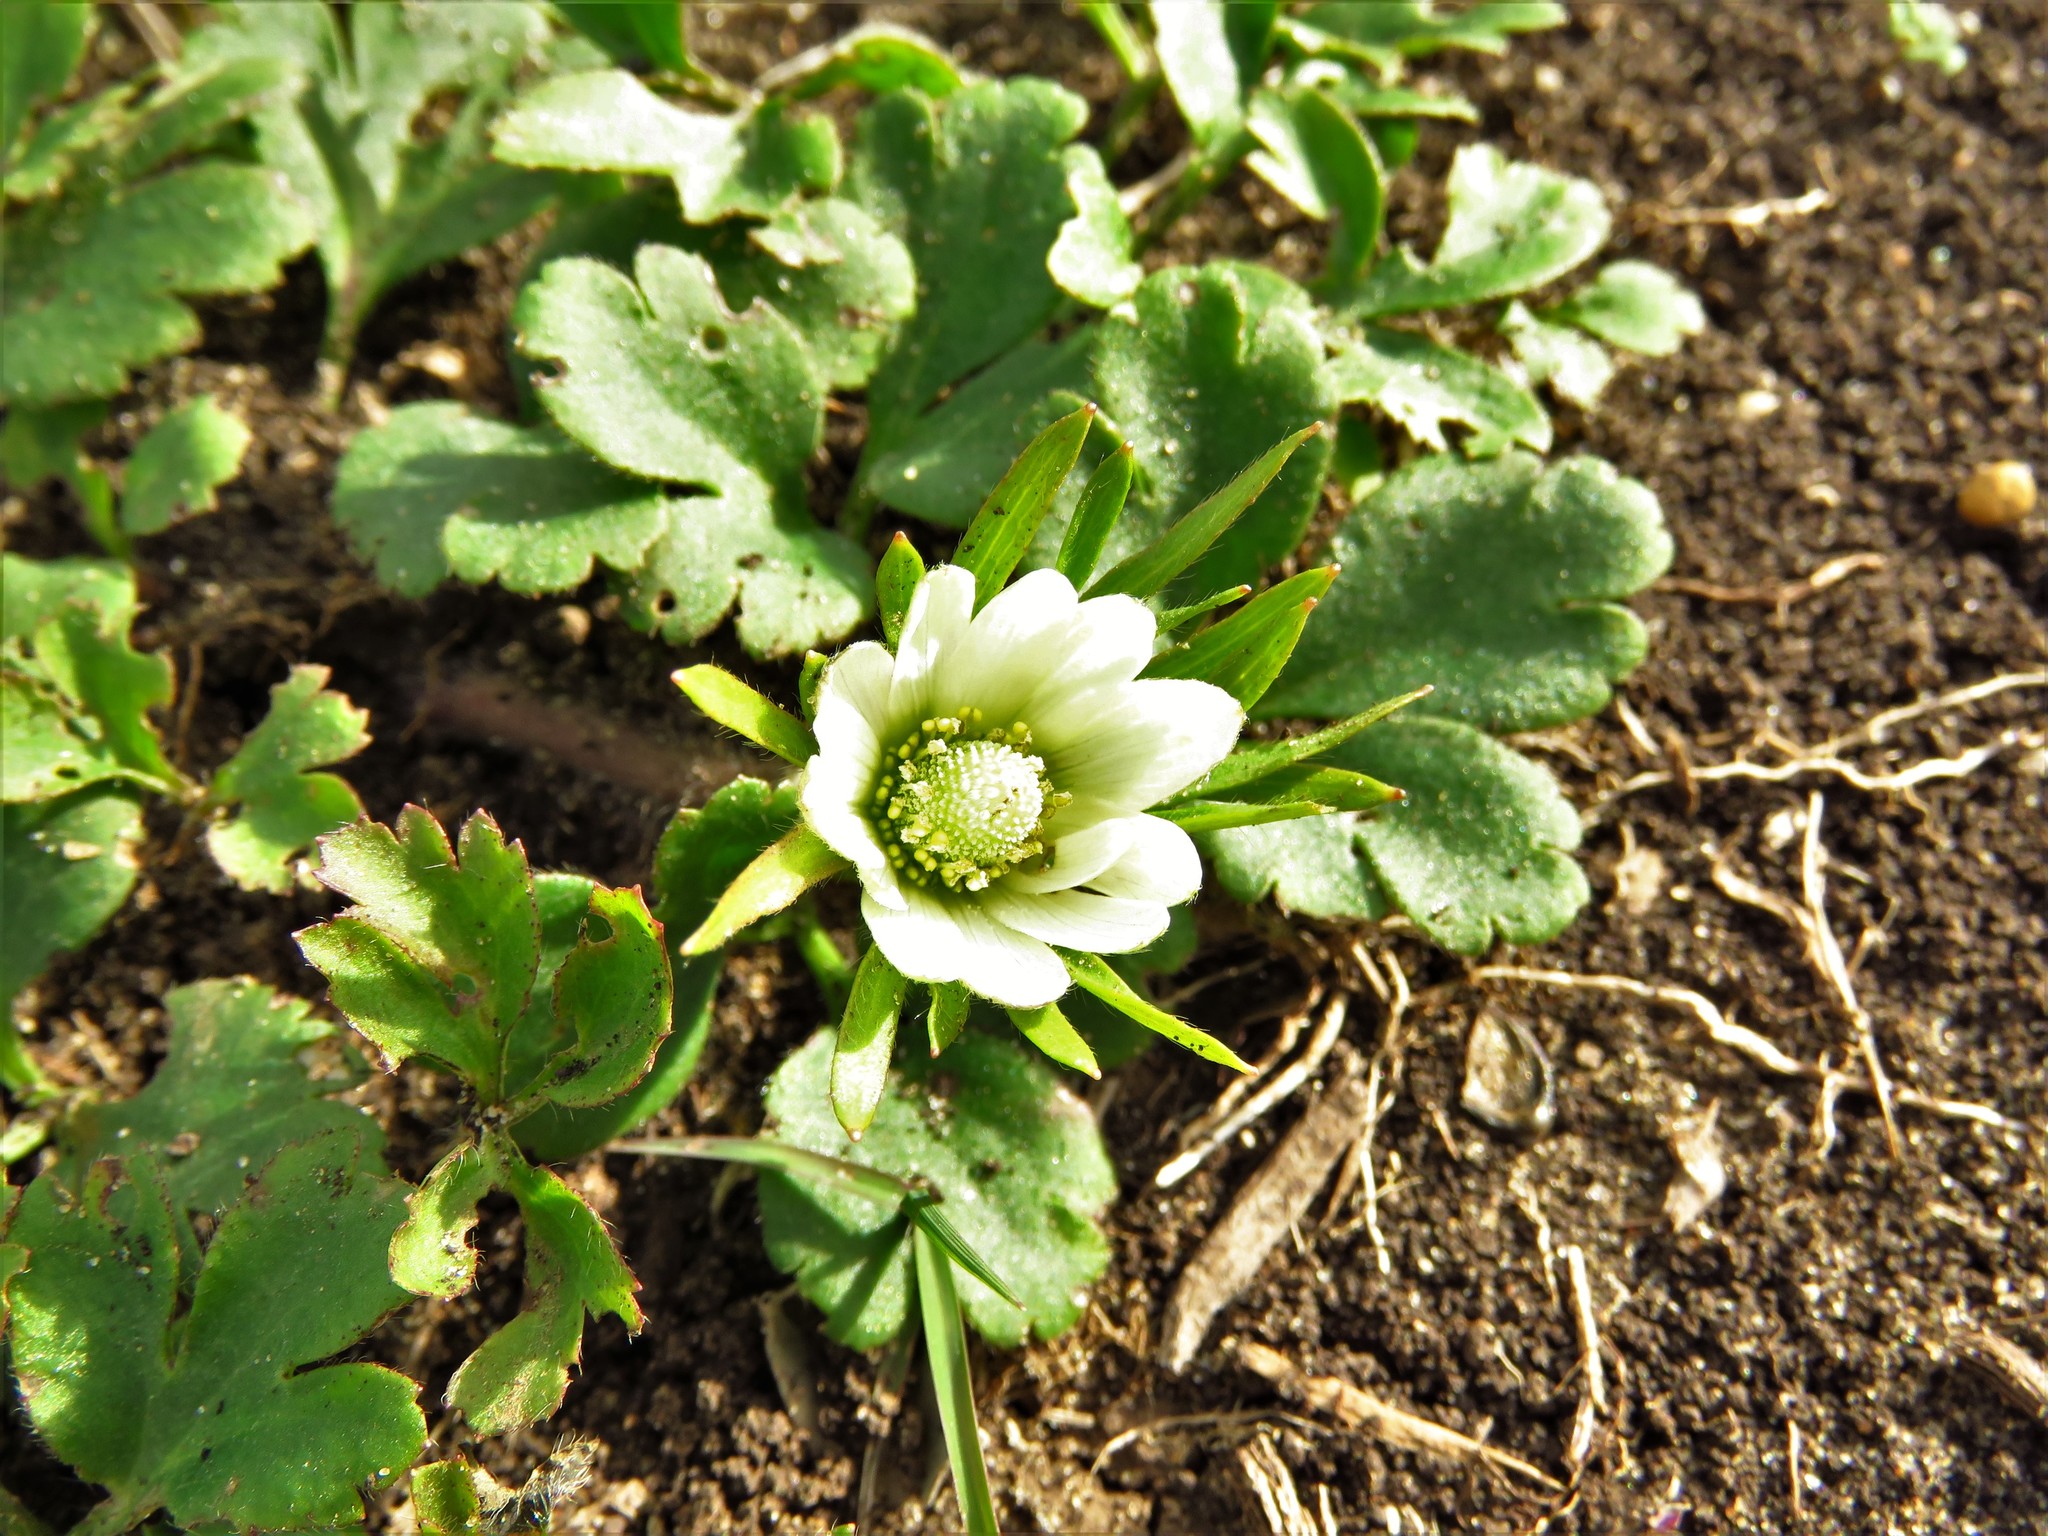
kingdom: Plantae
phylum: Tracheophyta
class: Magnoliopsida
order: Ranunculales
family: Ranunculaceae
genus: Anemone
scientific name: Anemone berlandieri
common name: Ten-petal anemone
